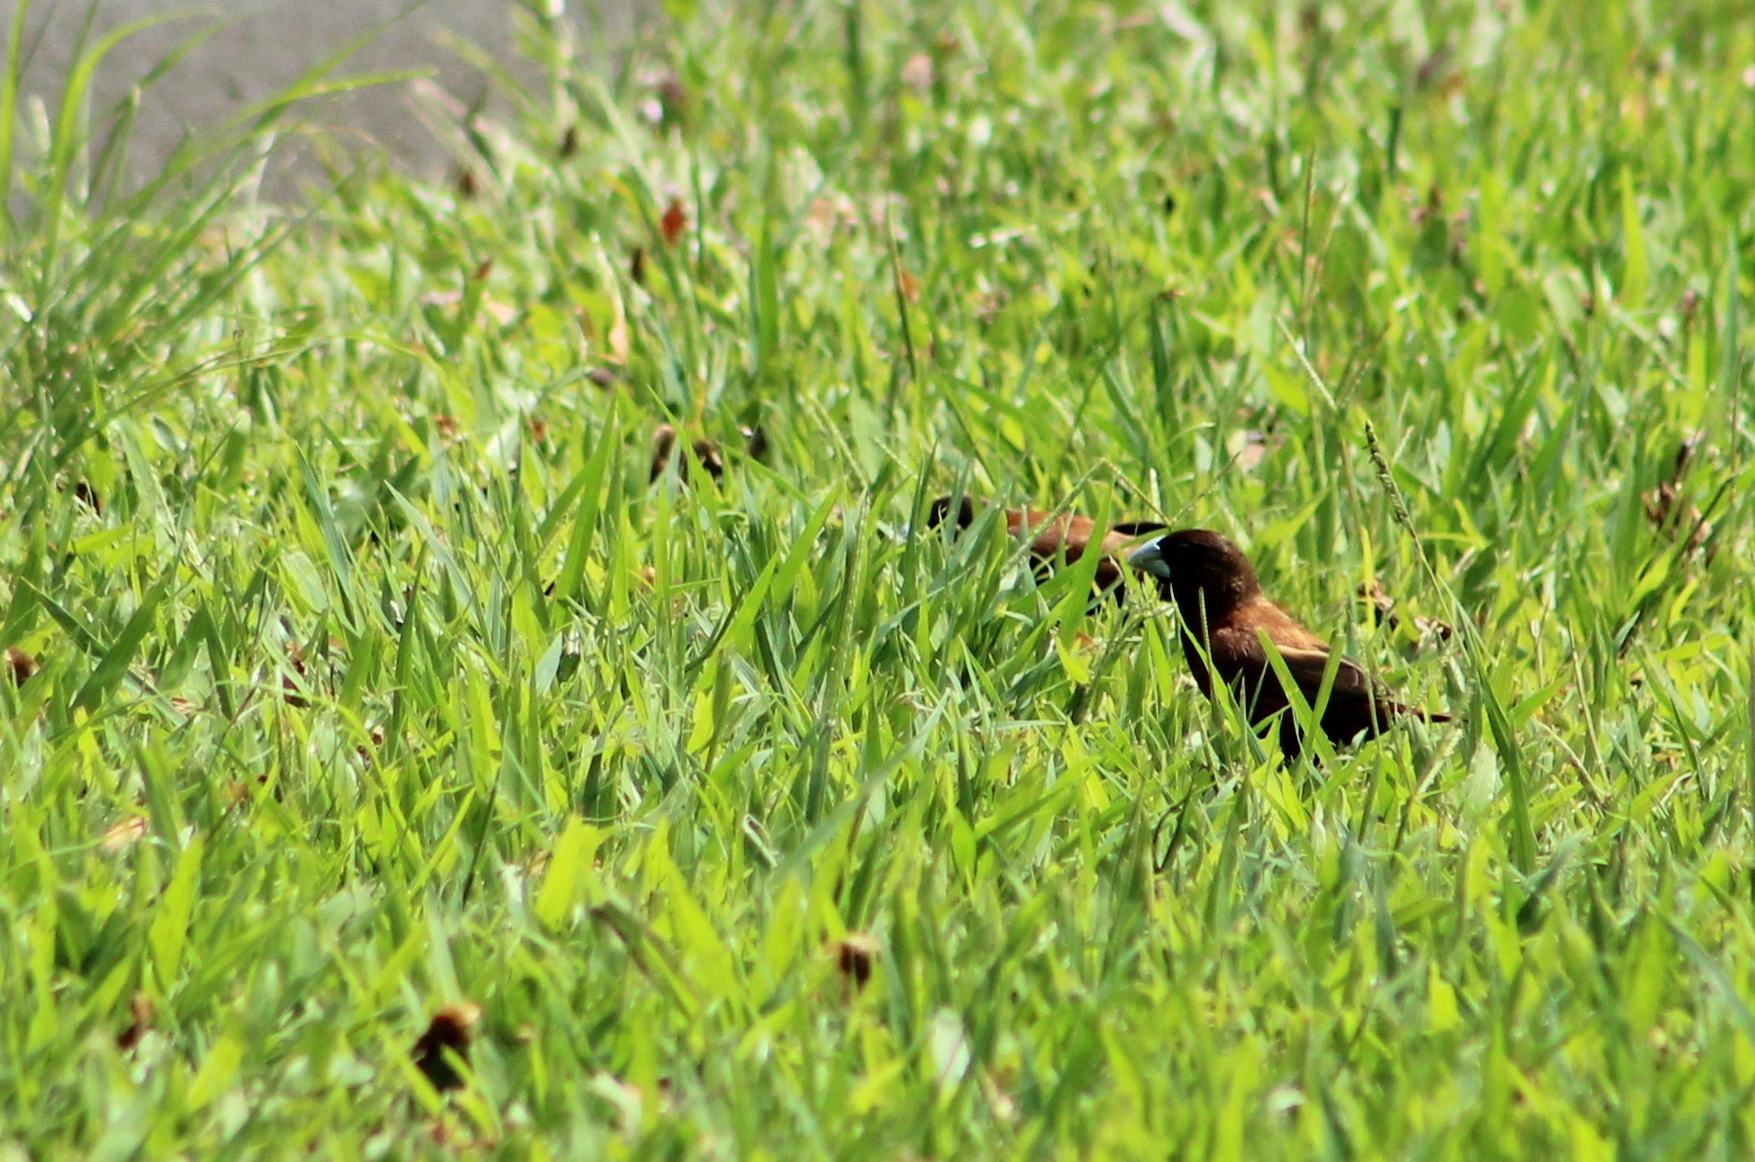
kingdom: Animalia
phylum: Chordata
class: Aves
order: Passeriformes
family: Estrildidae
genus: Lonchura
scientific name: Lonchura atricapilla
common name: Chestnut munia
